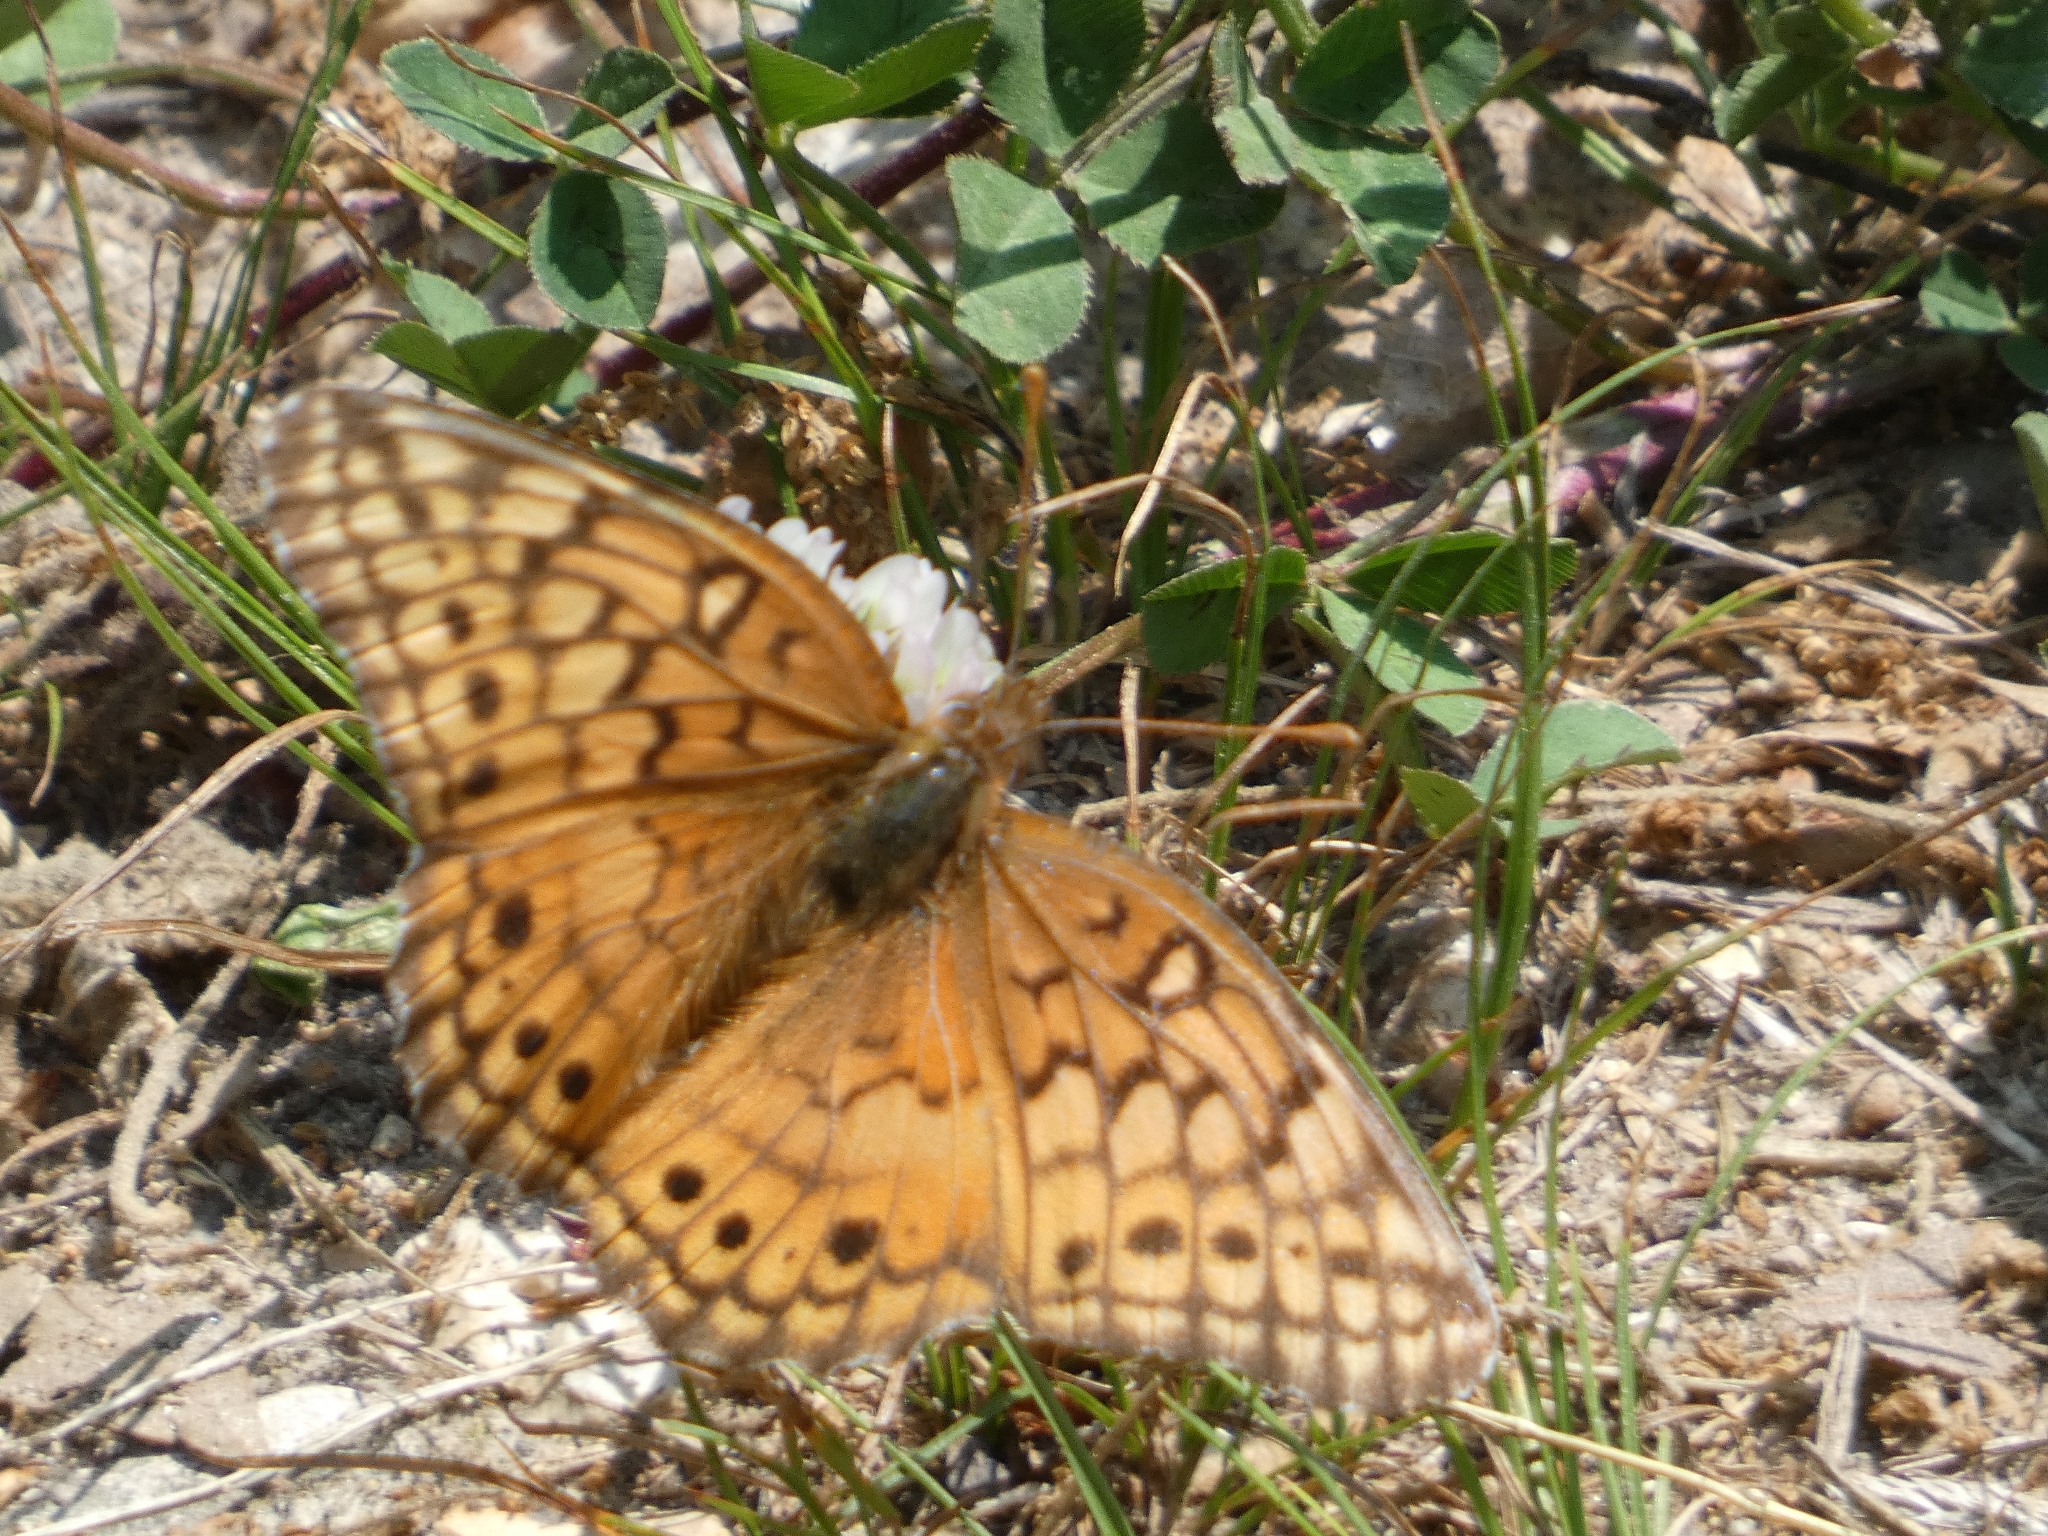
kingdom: Animalia
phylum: Arthropoda
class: Insecta
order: Lepidoptera
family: Nymphalidae
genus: Euptoieta
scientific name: Euptoieta claudia
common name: Variegated fritillary
